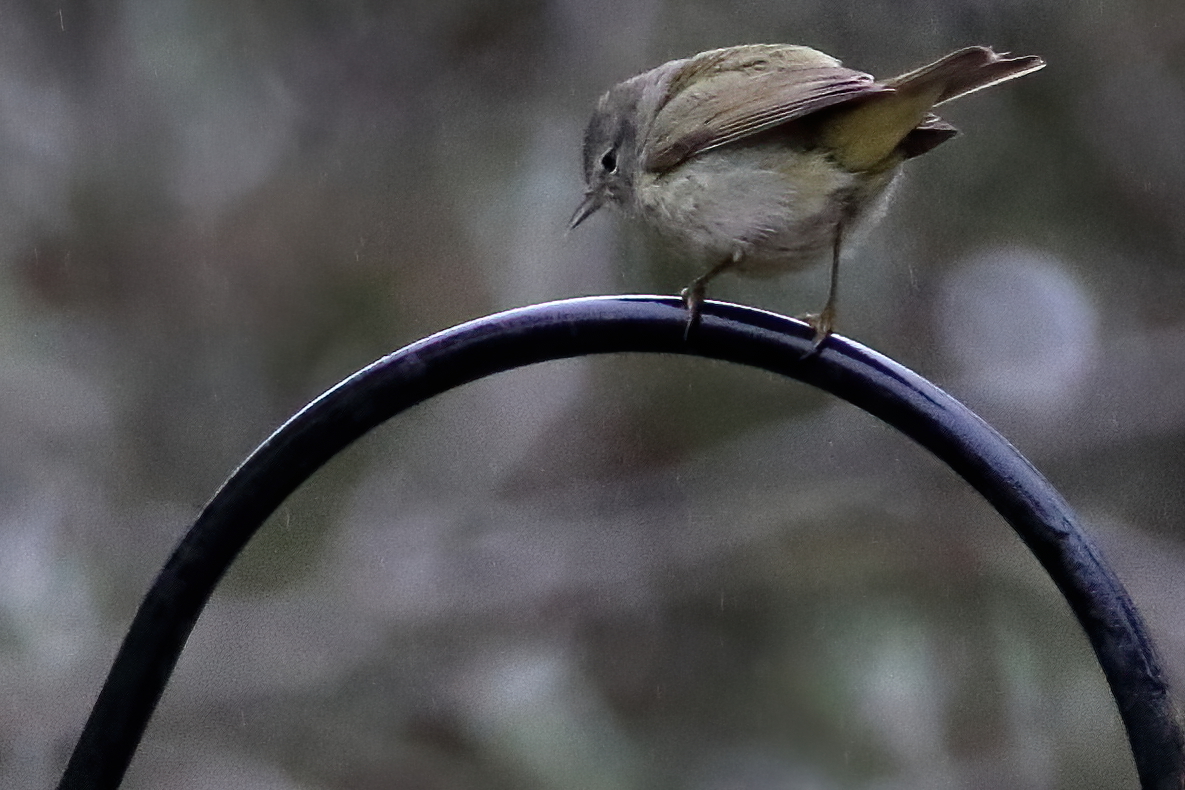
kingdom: Animalia
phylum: Chordata
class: Aves
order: Passeriformes
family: Parulidae
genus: Leiothlypis
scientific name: Leiothlypis celata
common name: Orange-crowned warbler
